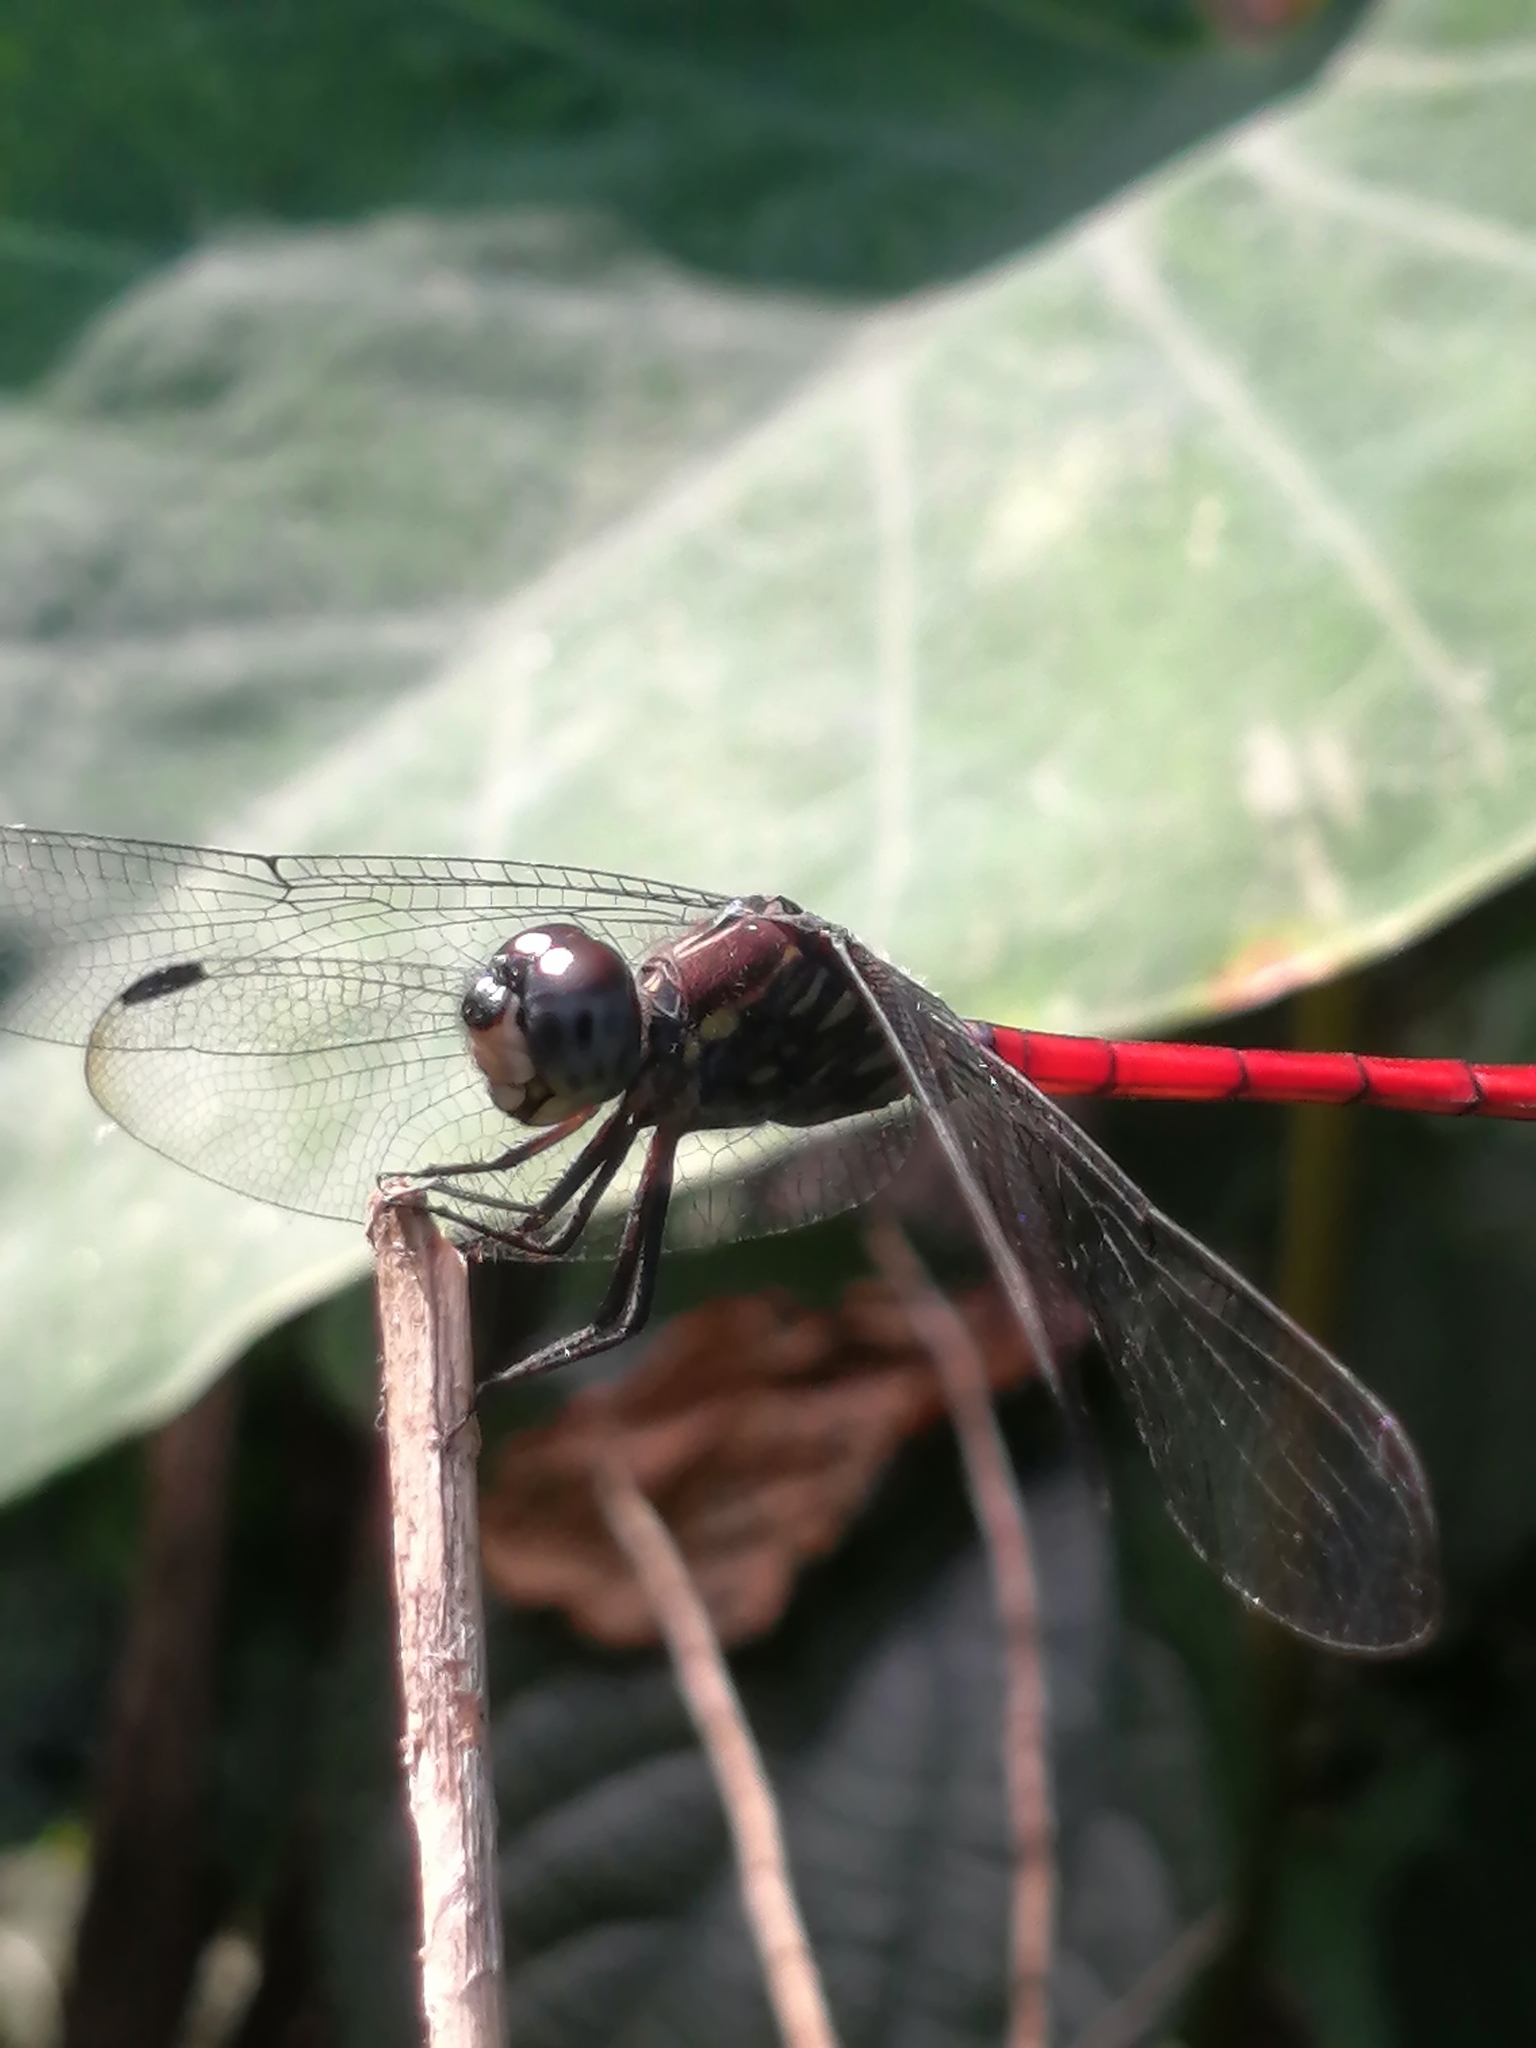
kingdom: Animalia
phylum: Arthropoda
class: Insecta
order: Odonata
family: Libellulidae
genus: Lathrecista
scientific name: Lathrecista asiatica
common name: Scarlet grenadier
